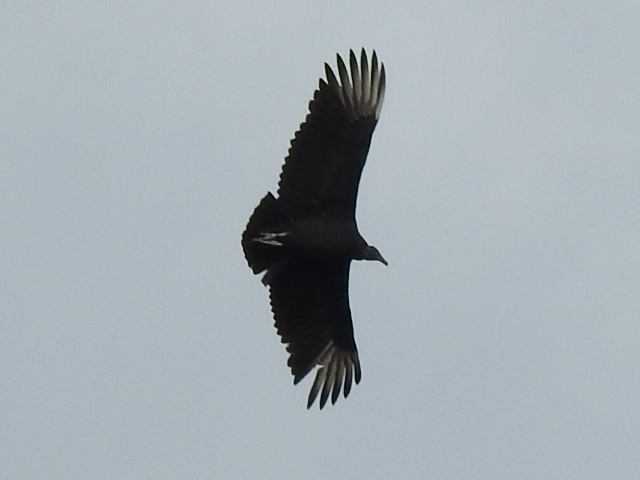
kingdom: Animalia
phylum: Chordata
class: Aves
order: Accipitriformes
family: Cathartidae
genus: Coragyps
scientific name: Coragyps atratus
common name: Black vulture
